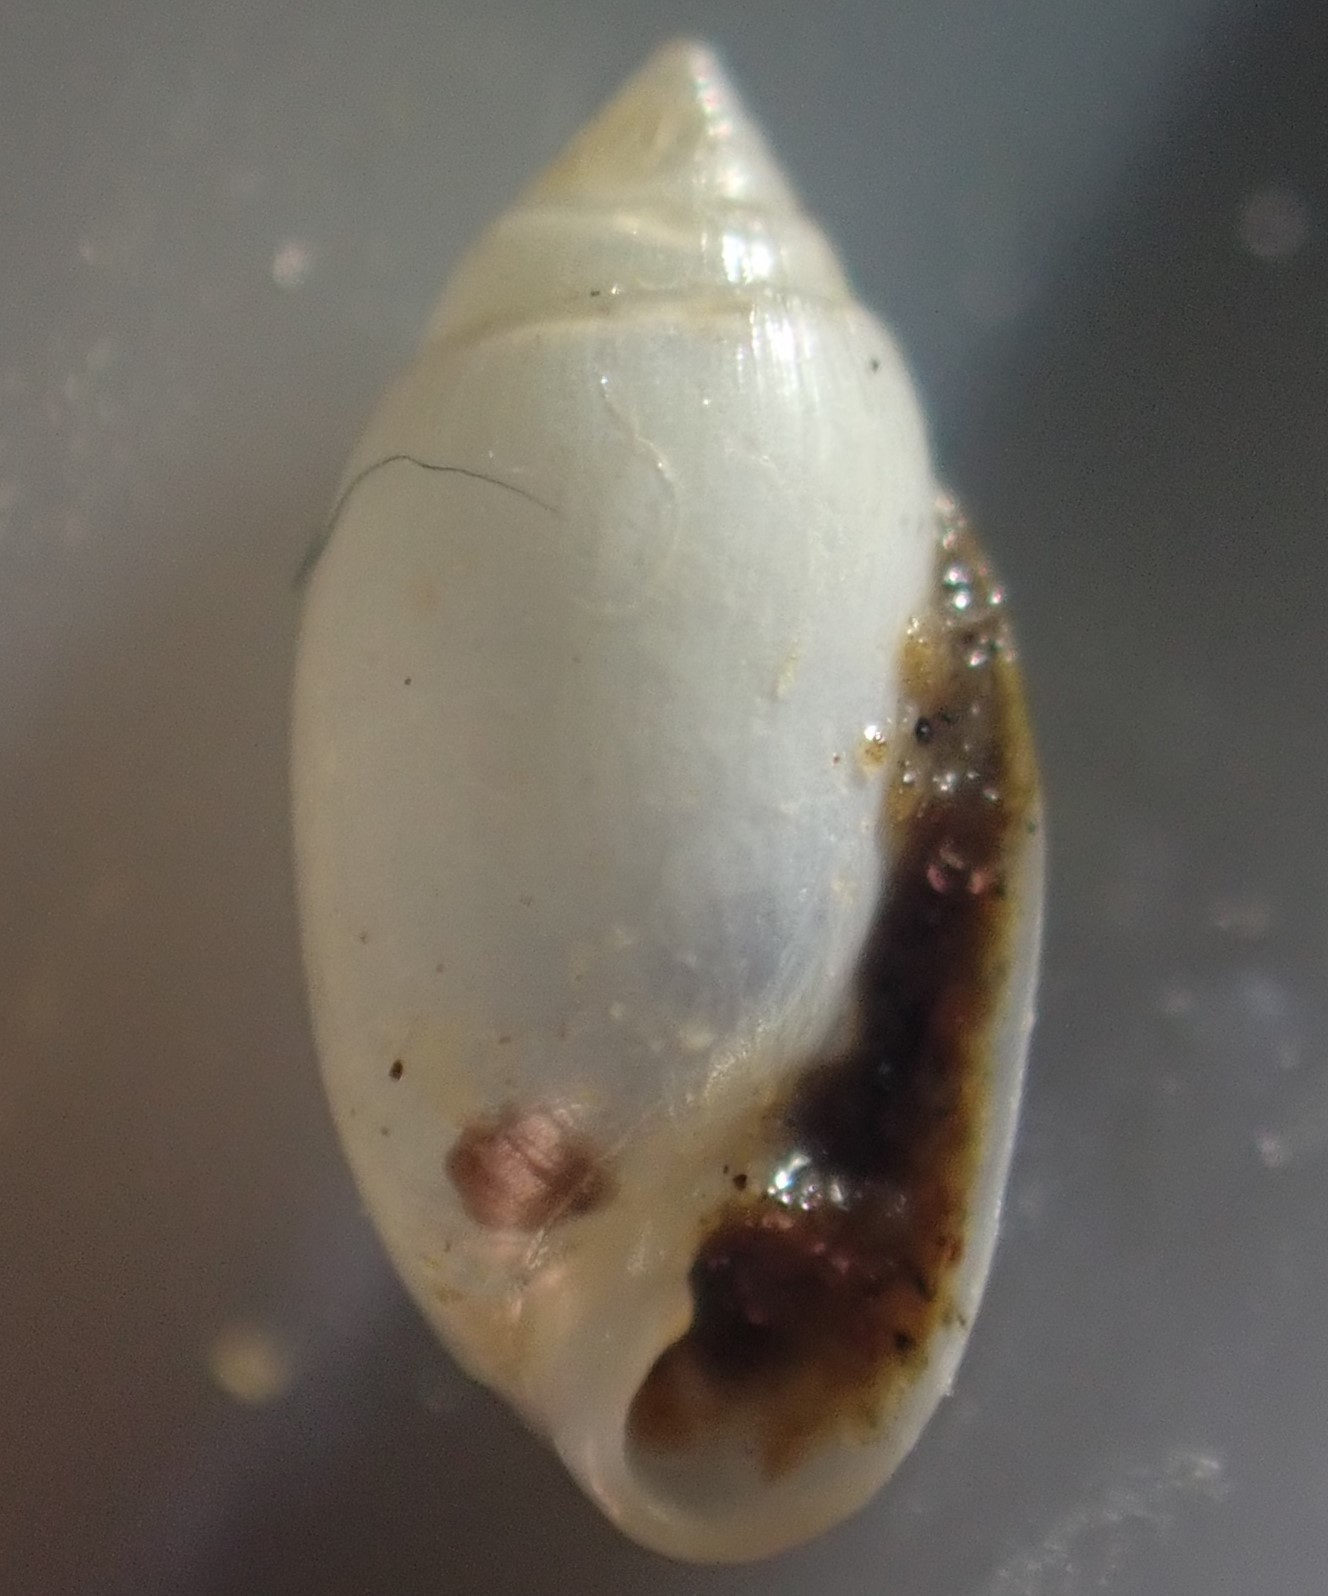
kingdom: Animalia
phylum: Mollusca
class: Gastropoda
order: Ellobiida
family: Ellobiidae
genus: Microtralia
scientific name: Microtralia insularis
